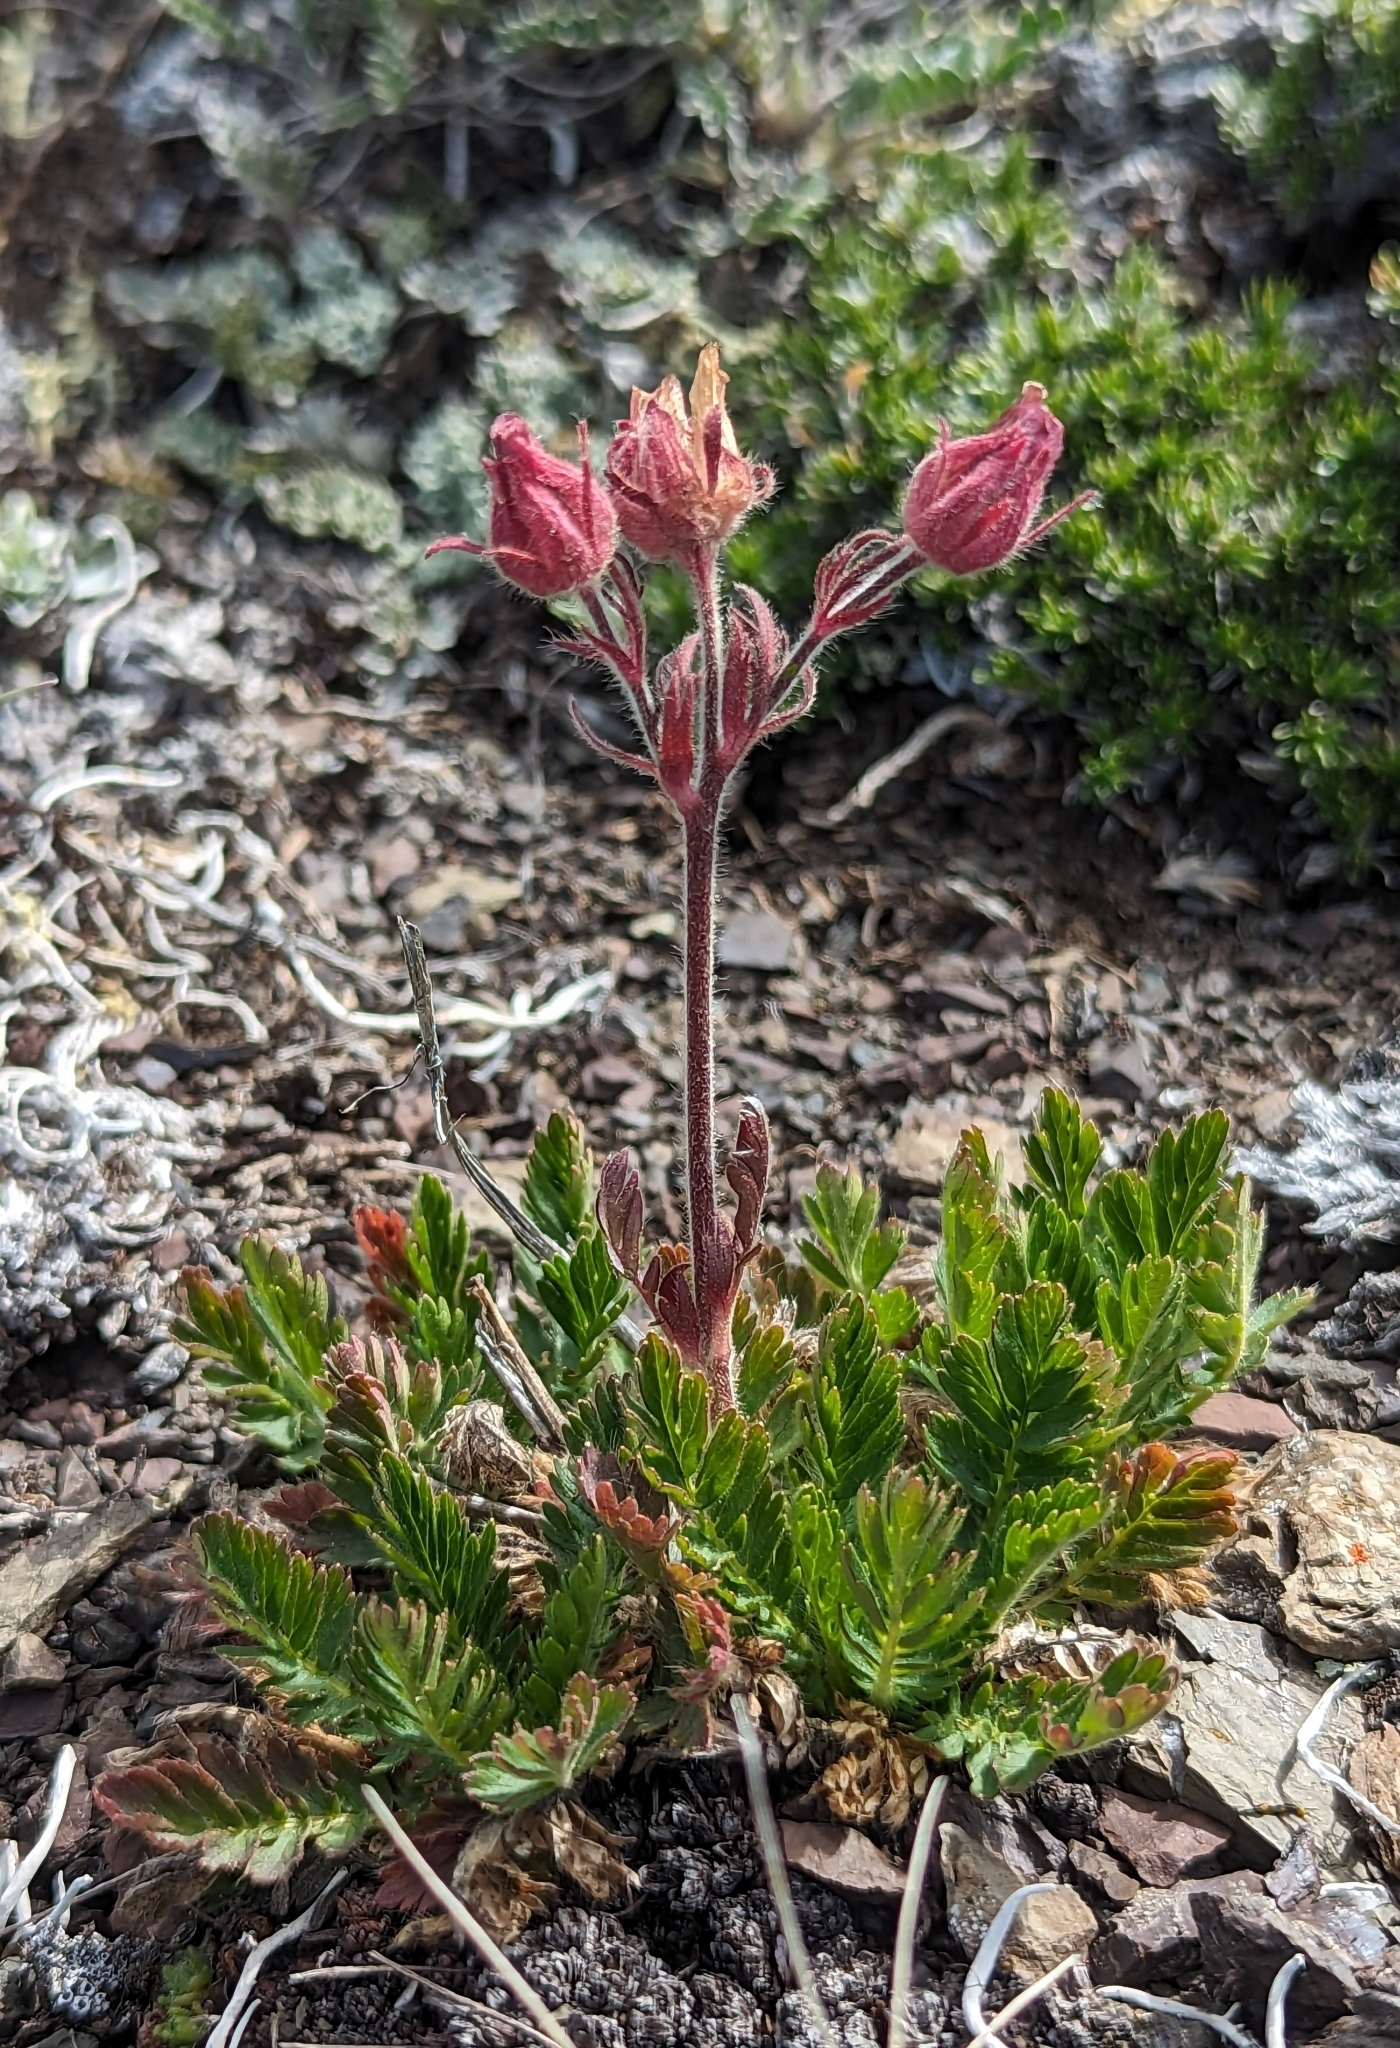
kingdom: Plantae
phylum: Tracheophyta
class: Magnoliopsida
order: Rosales
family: Rosaceae
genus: Geum
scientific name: Geum triflorum
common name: Old man's whiskers
